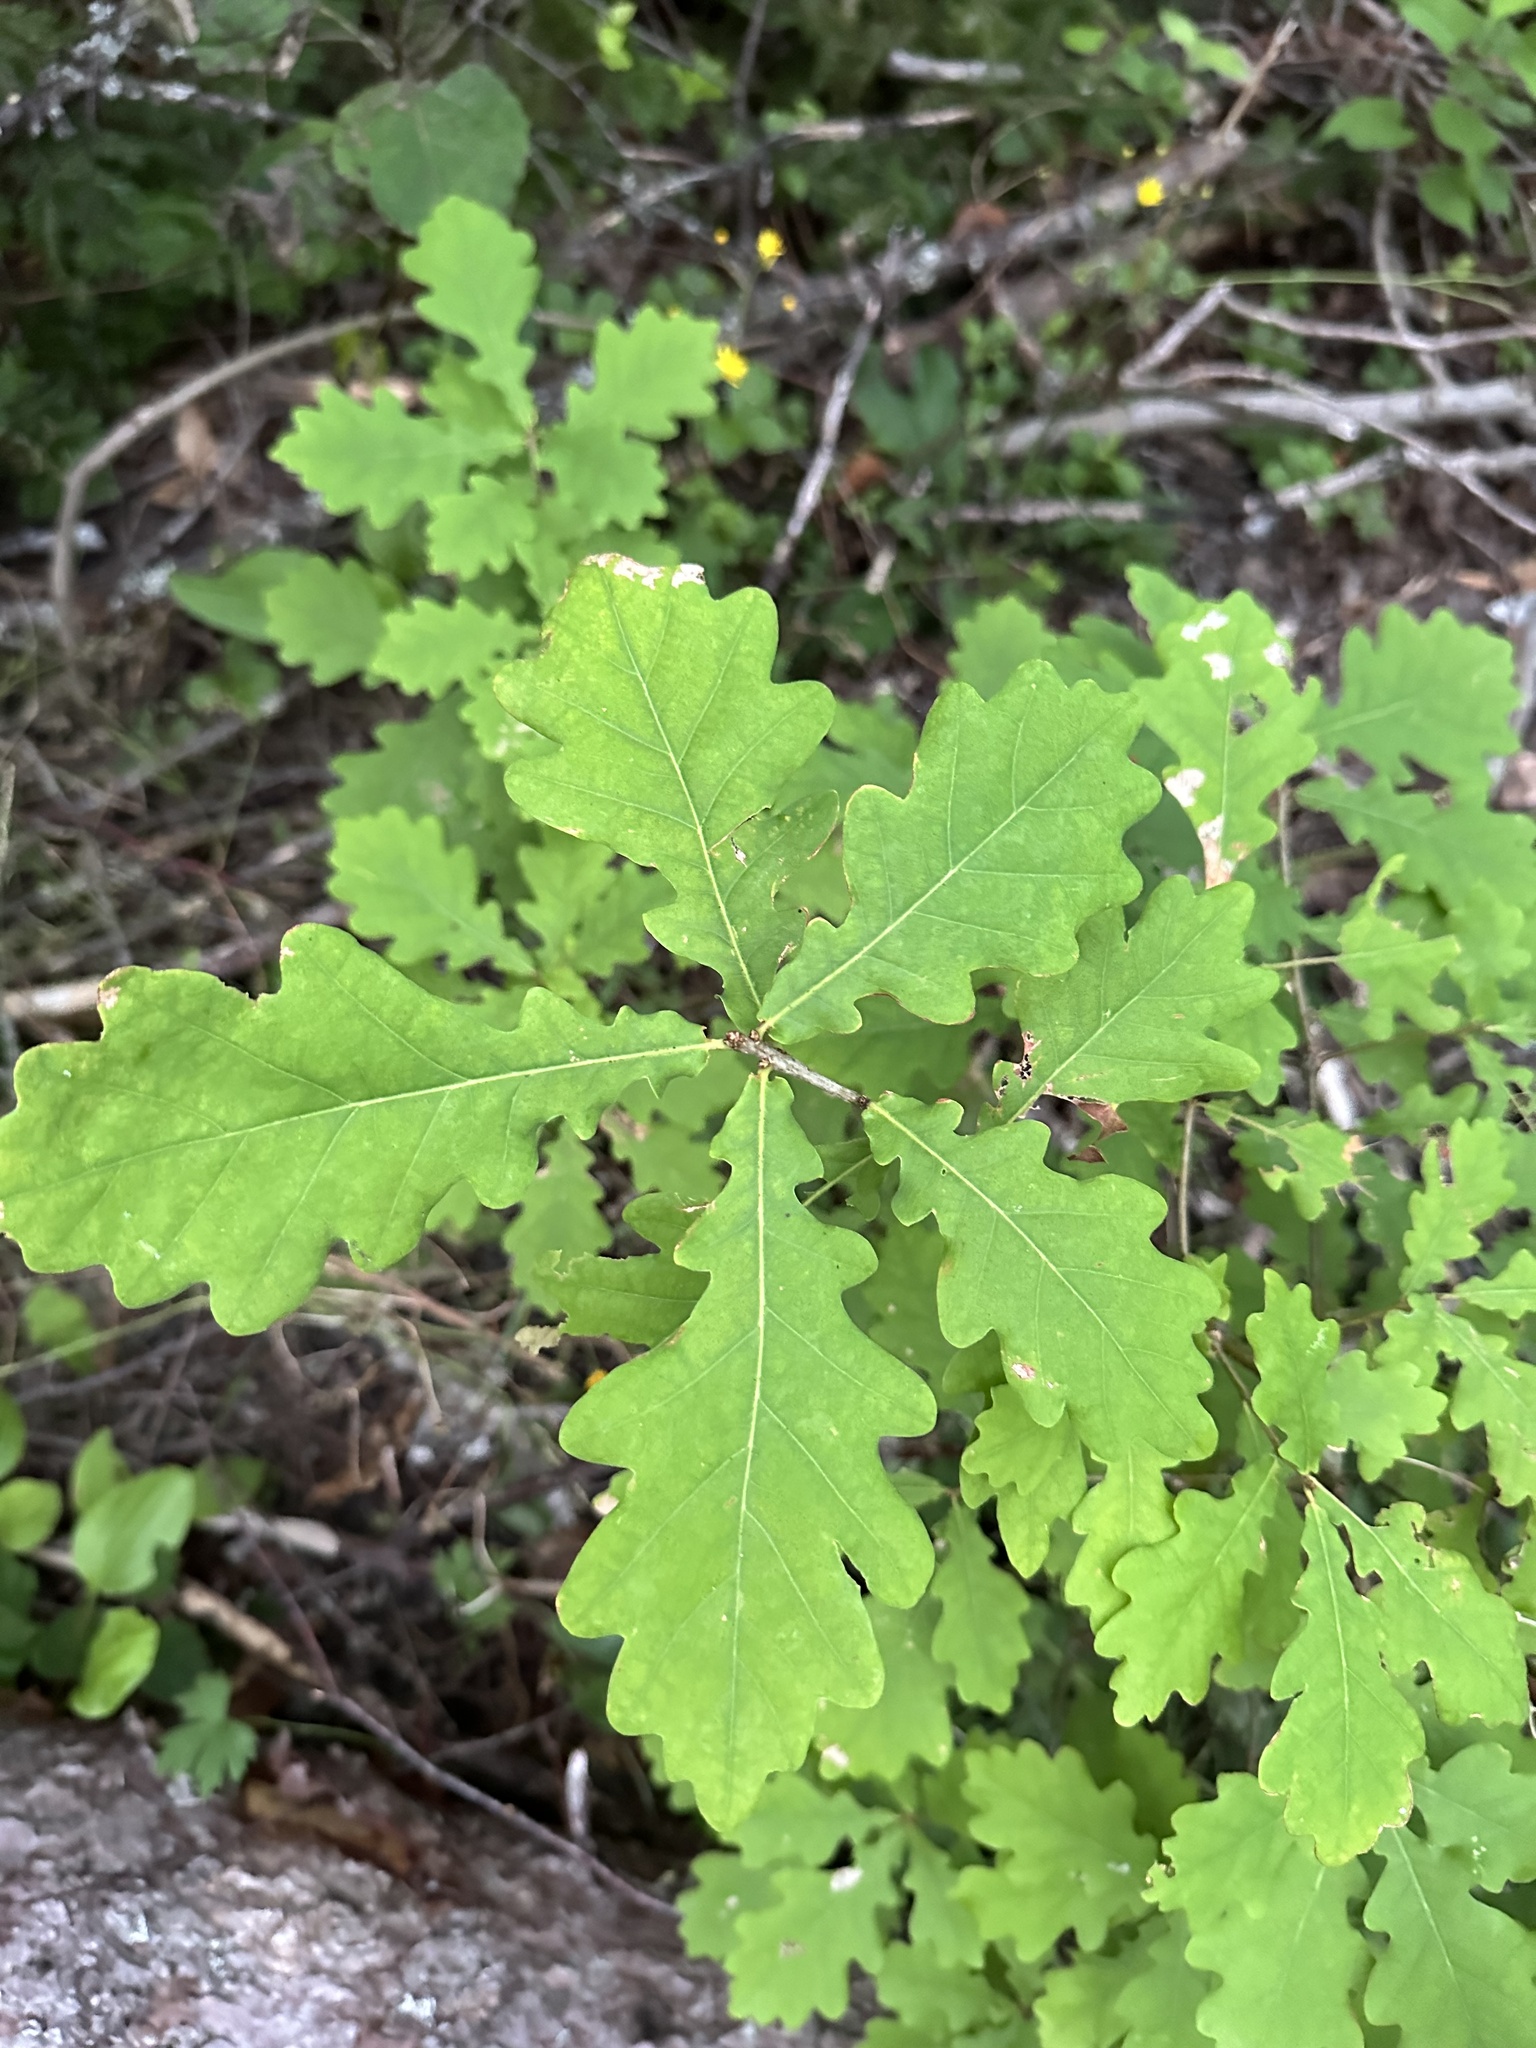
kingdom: Plantae
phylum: Tracheophyta
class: Magnoliopsida
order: Fagales
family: Fagaceae
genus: Quercus
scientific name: Quercus robur
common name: Pedunculate oak
